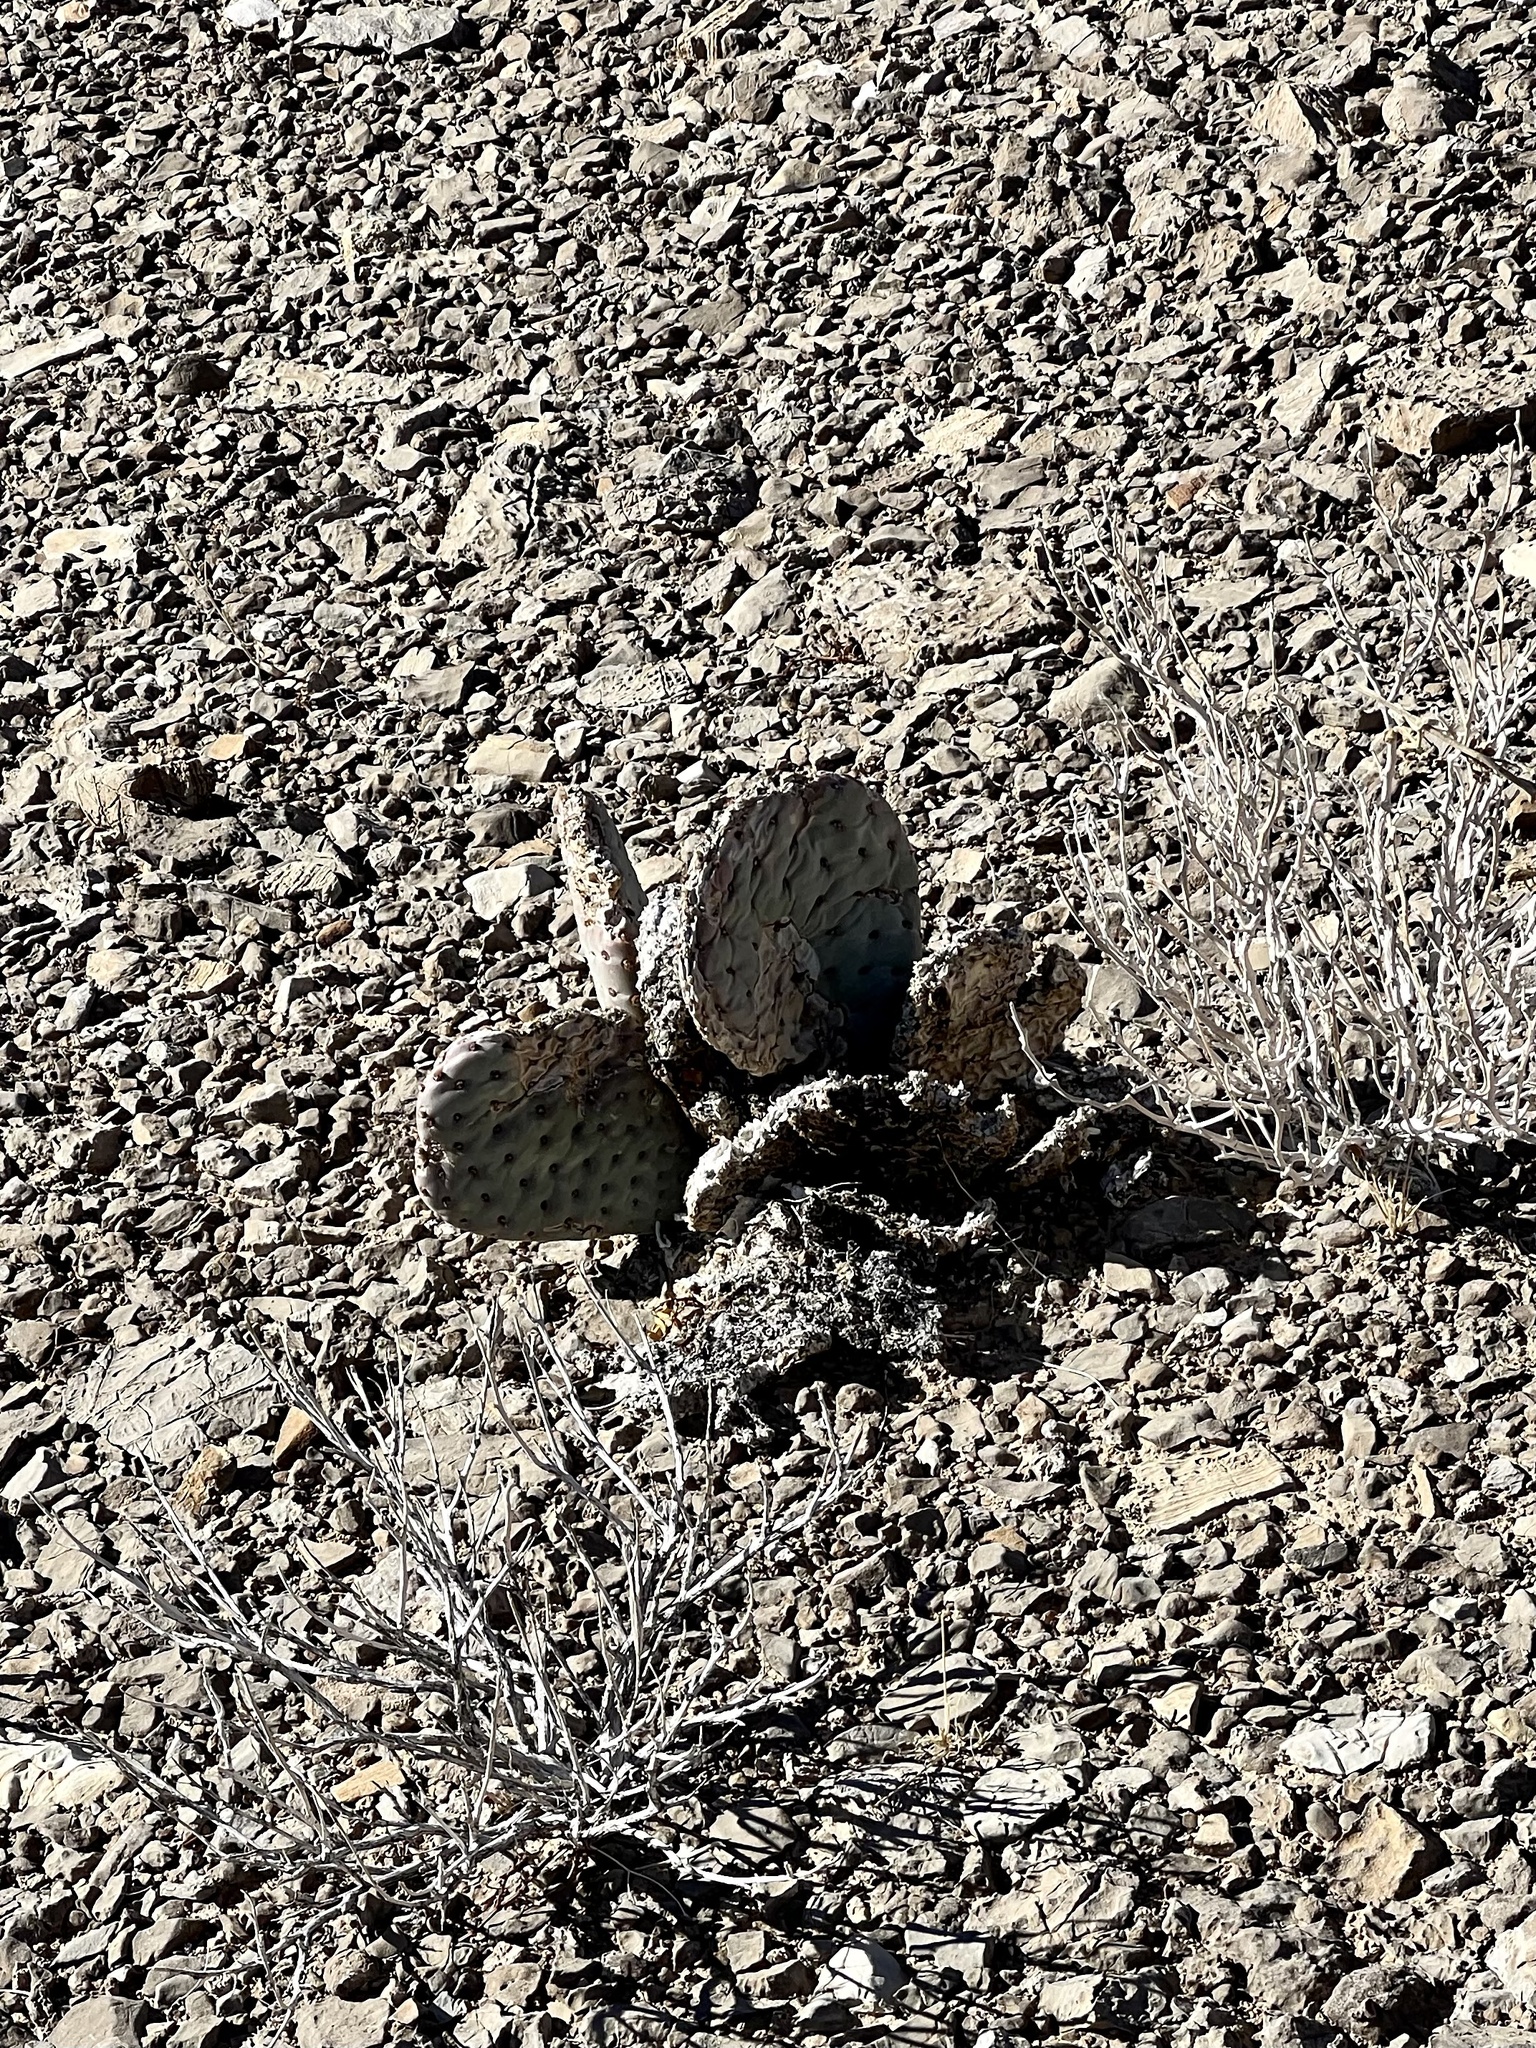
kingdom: Plantae
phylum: Tracheophyta
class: Magnoliopsida
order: Caryophyllales
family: Cactaceae
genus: Opuntia
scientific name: Opuntia basilaris
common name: Beavertail prickly-pear
